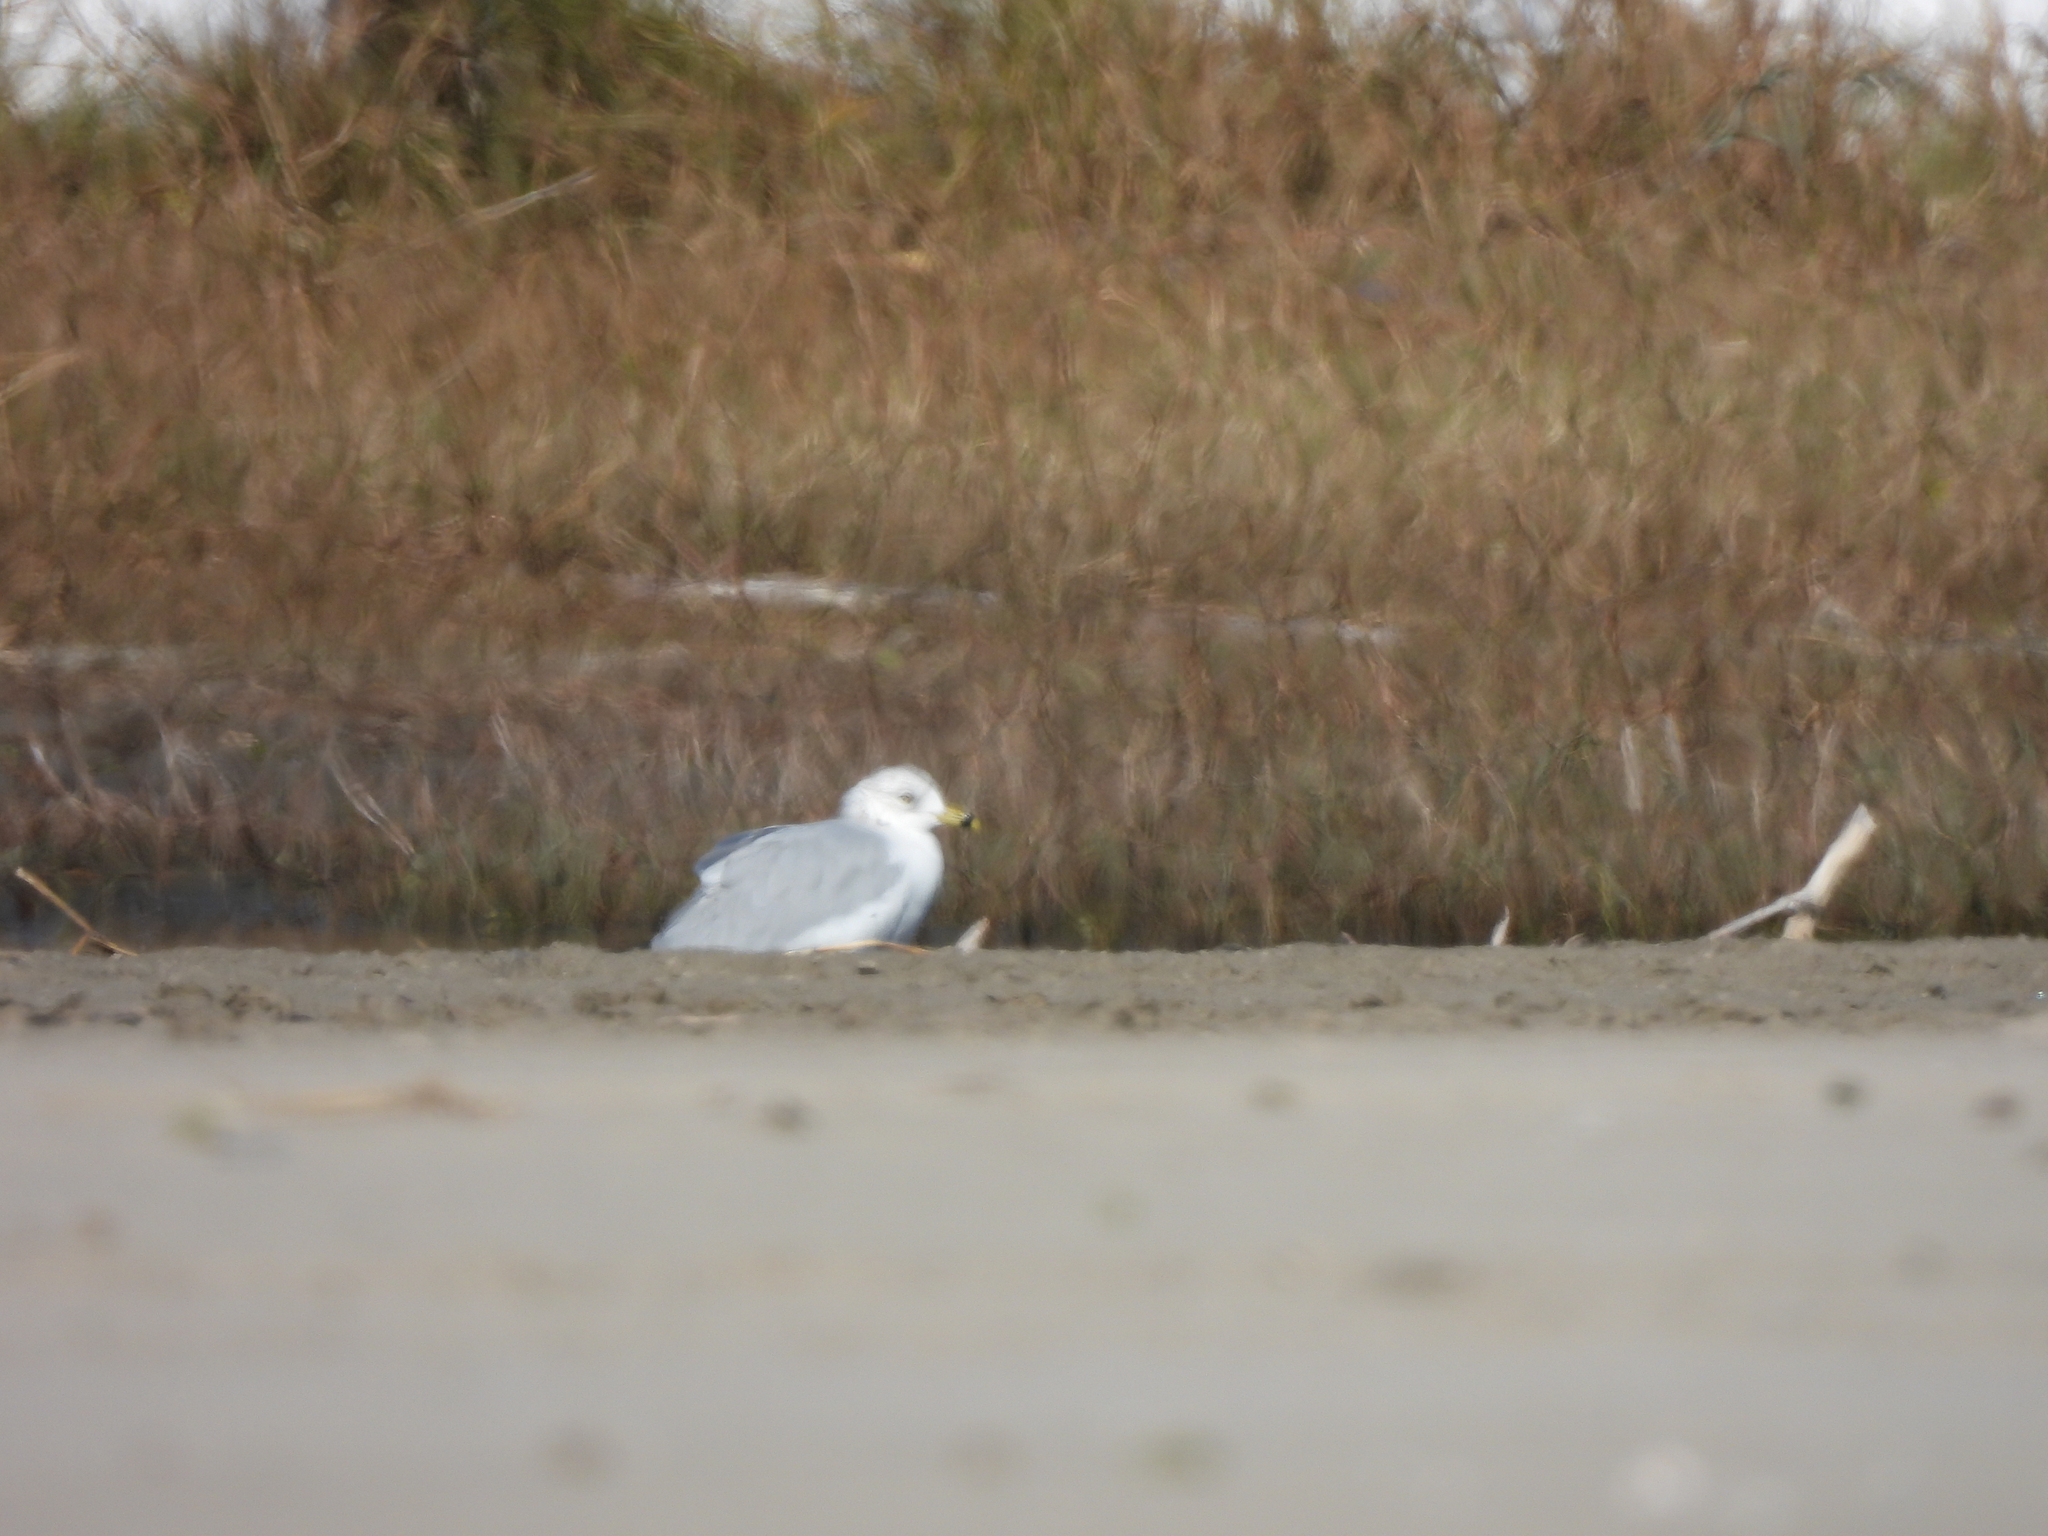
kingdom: Animalia
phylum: Chordata
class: Aves
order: Charadriiformes
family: Laridae
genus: Larus
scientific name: Larus delawarensis
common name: Ring-billed gull
